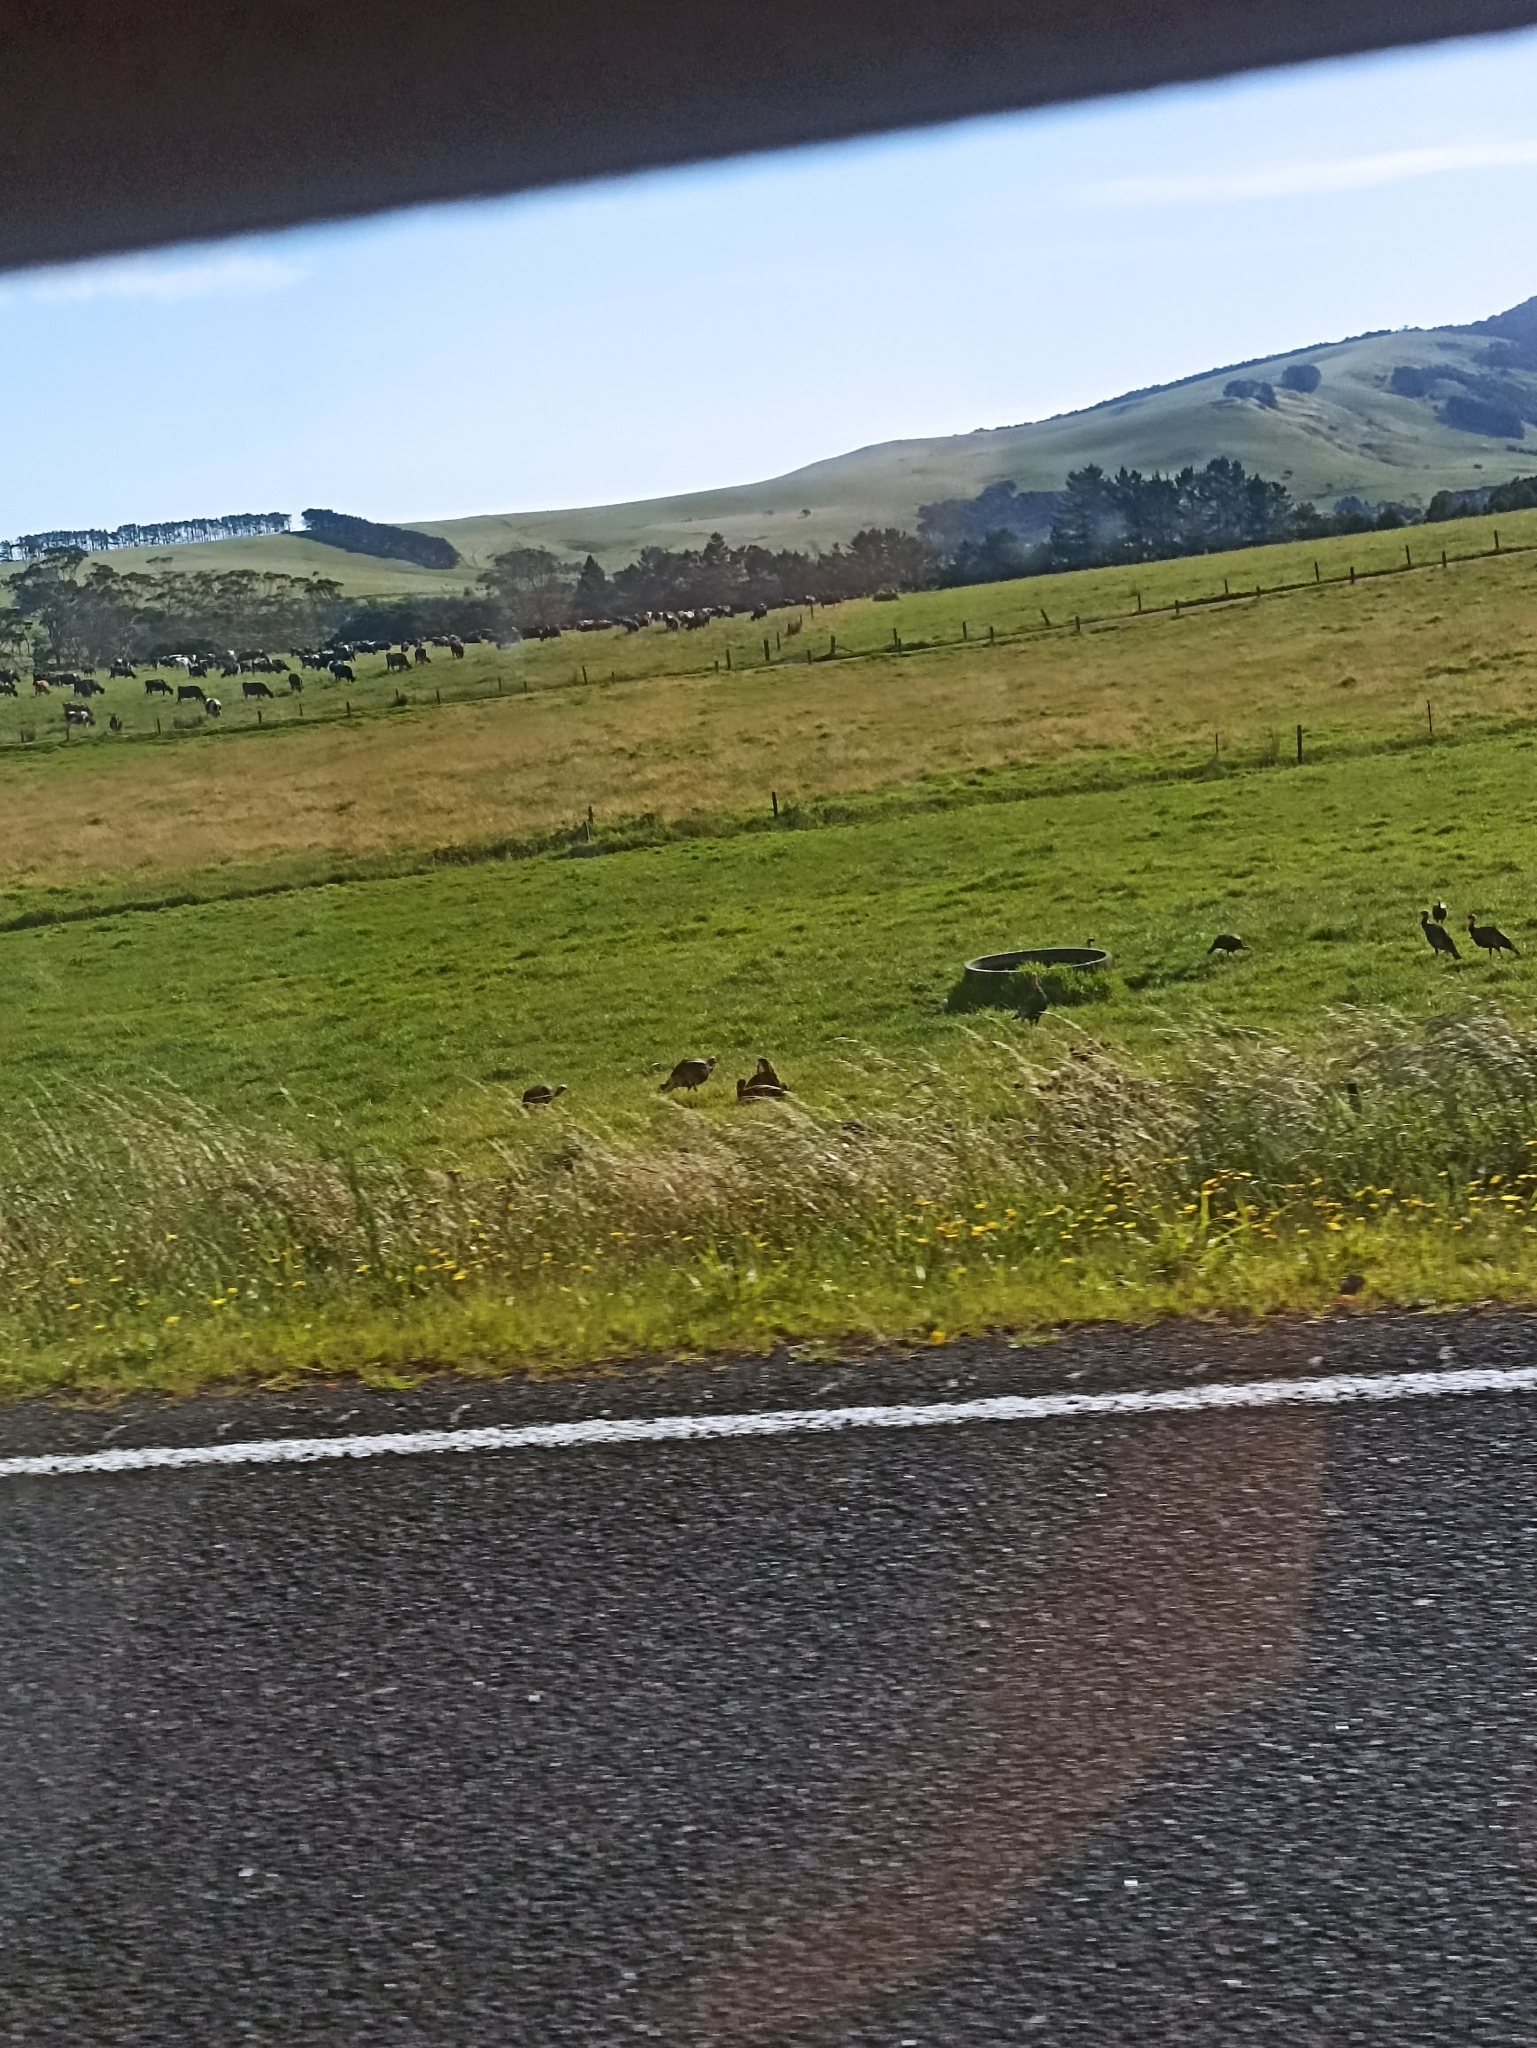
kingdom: Animalia
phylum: Chordata
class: Aves
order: Galliformes
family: Phasianidae
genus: Meleagris
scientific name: Meleagris gallopavo
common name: Wild turkey
